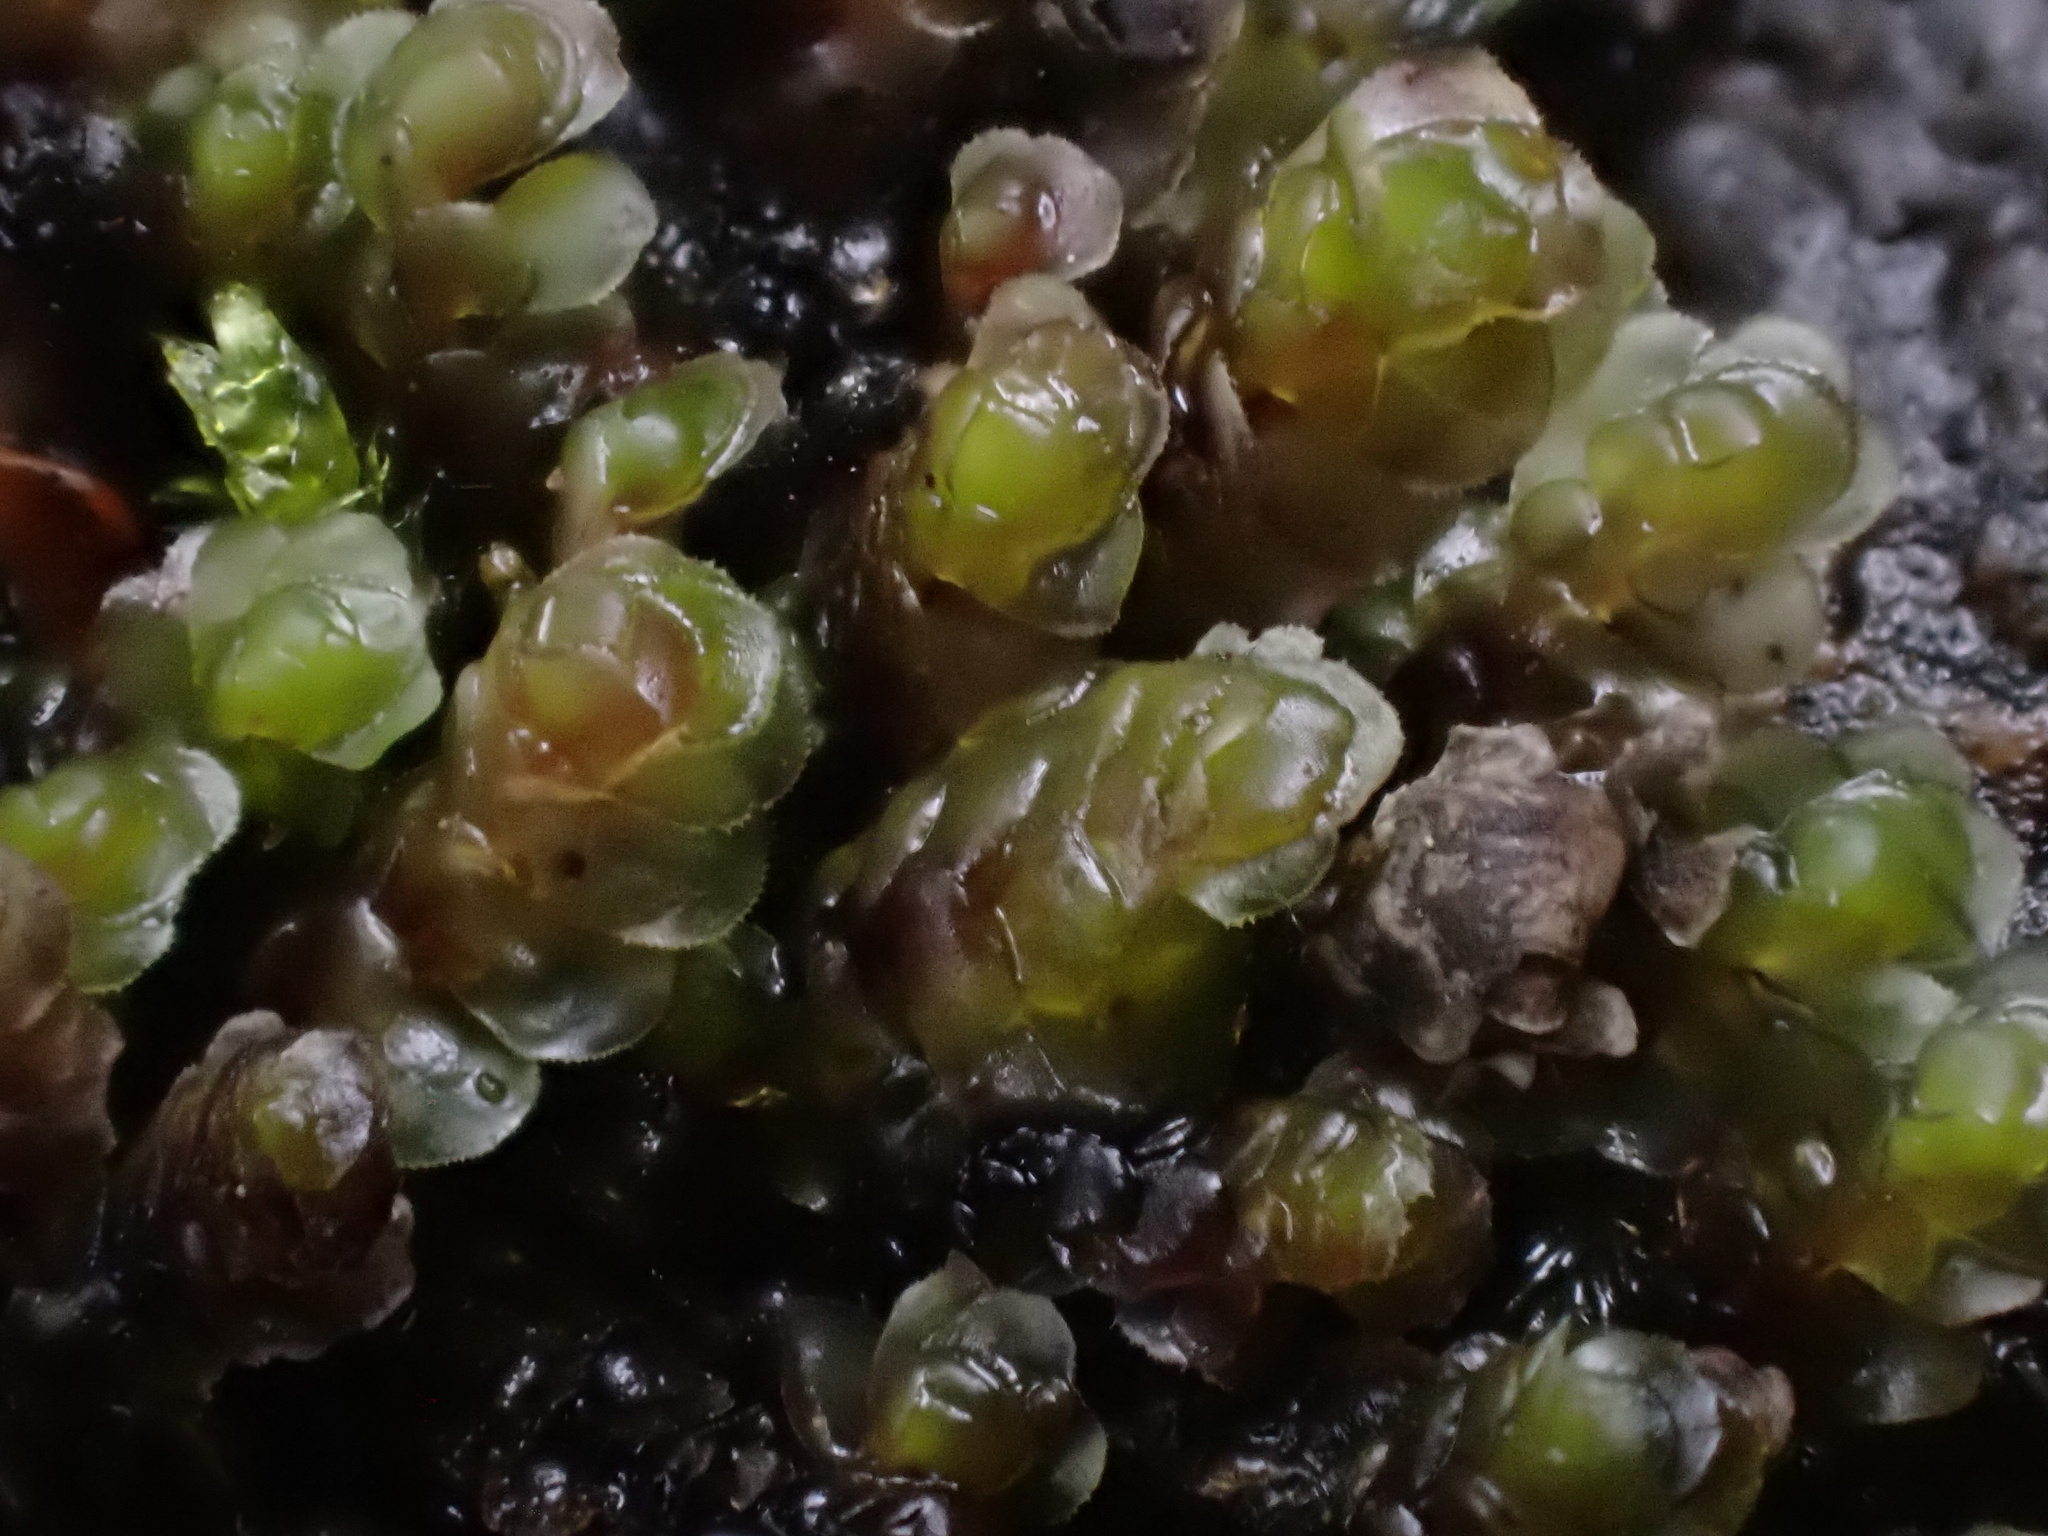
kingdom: Plantae
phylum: Marchantiophyta
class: Jungermanniopsida
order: Jungermanniales
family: Scapaniaceae
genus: Scapania
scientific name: Scapania undulata
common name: Water earwort
